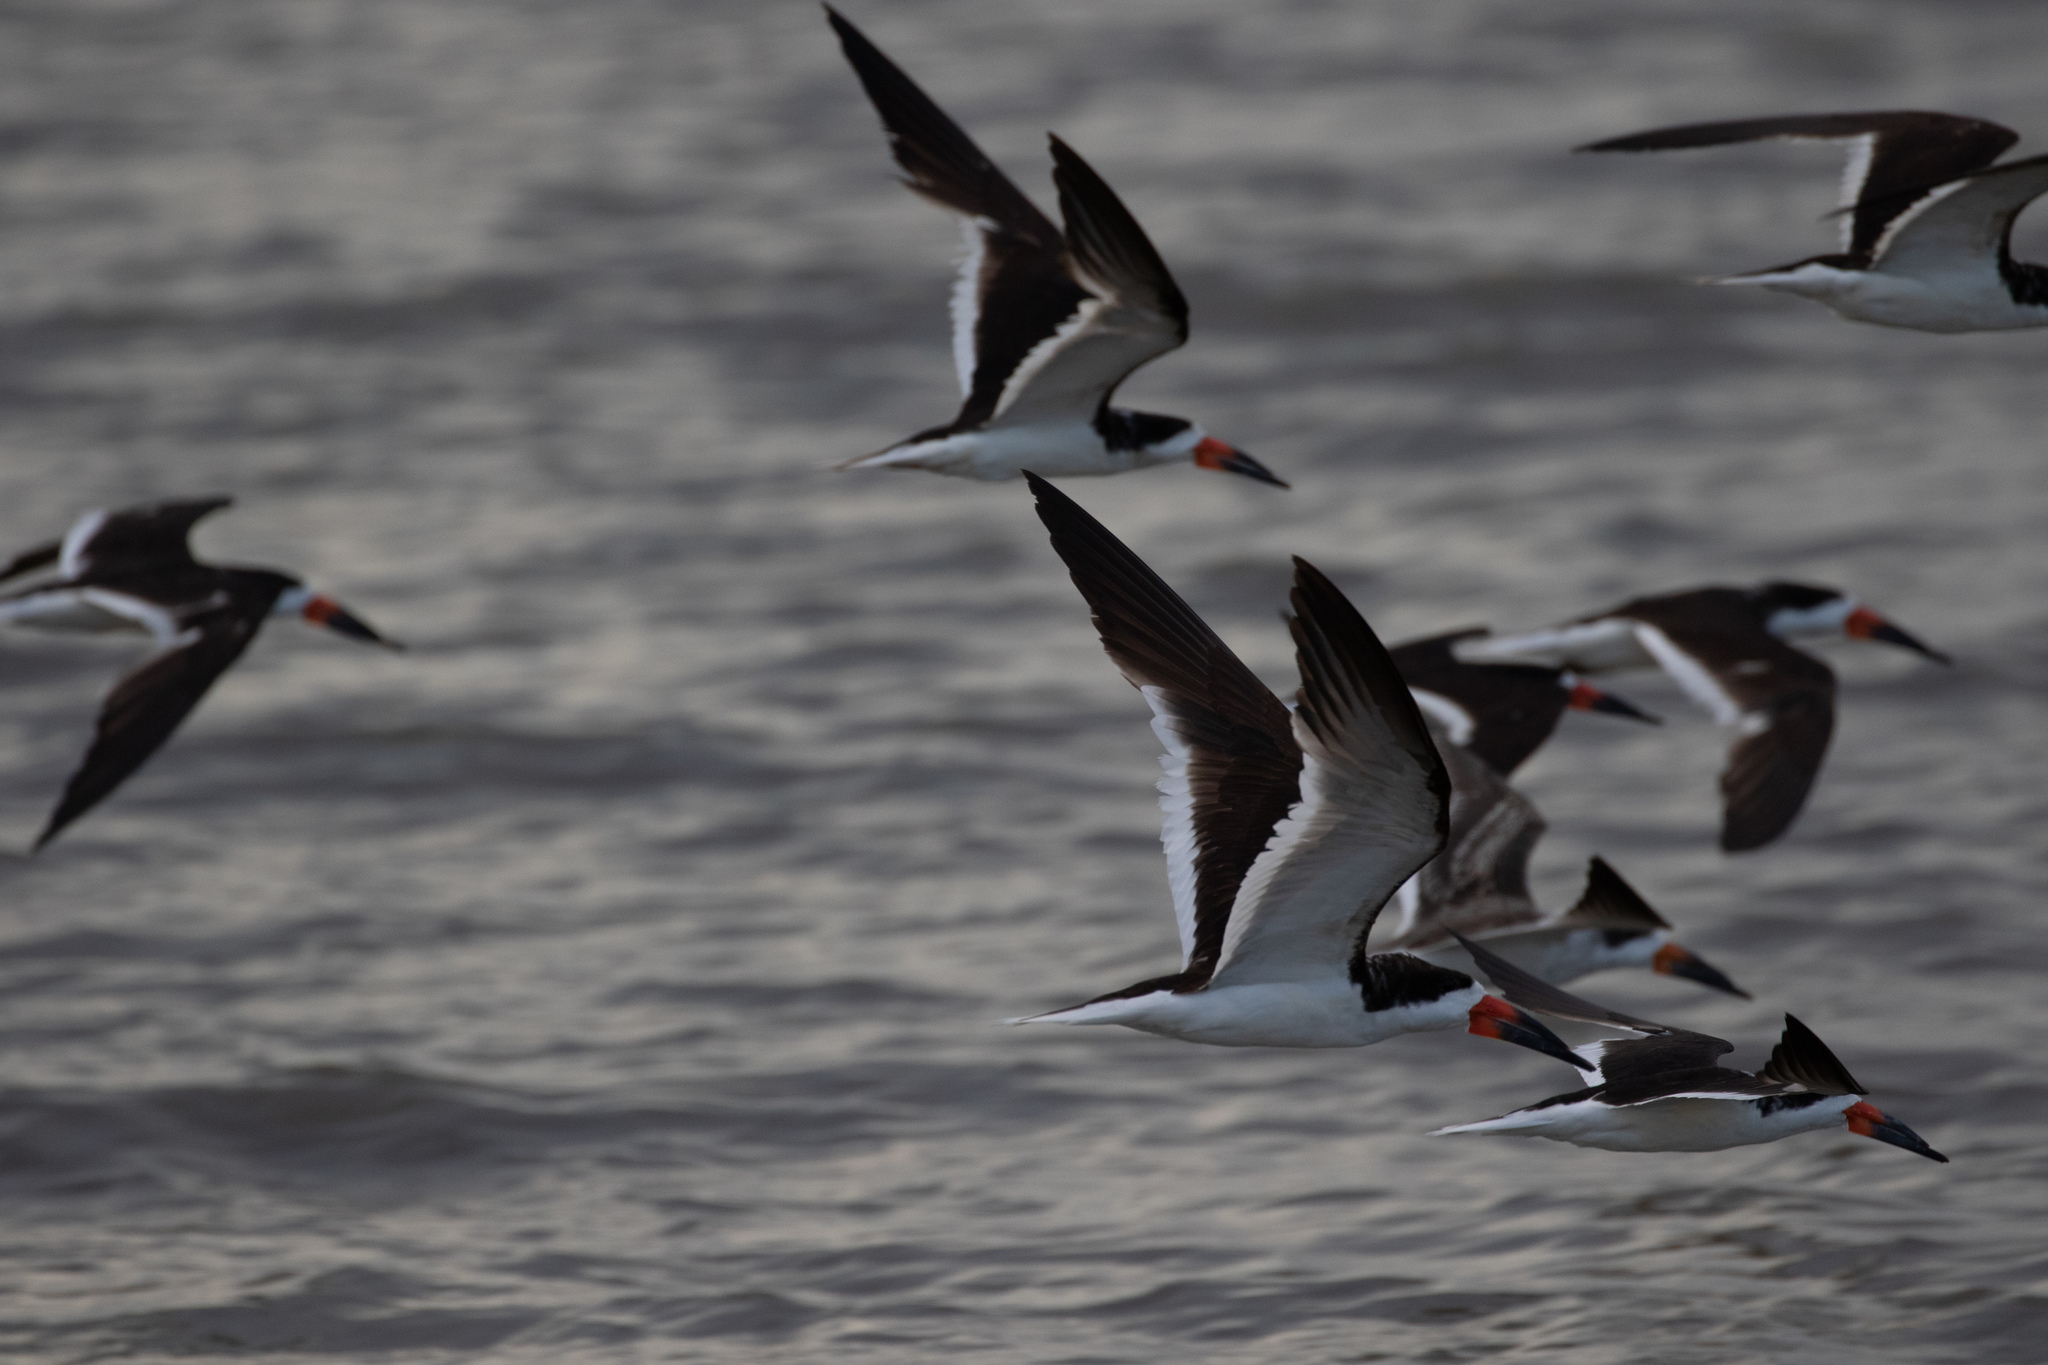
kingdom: Animalia
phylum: Chordata
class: Aves
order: Charadriiformes
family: Laridae
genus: Rynchops
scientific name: Rynchops niger
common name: Black skimmer
